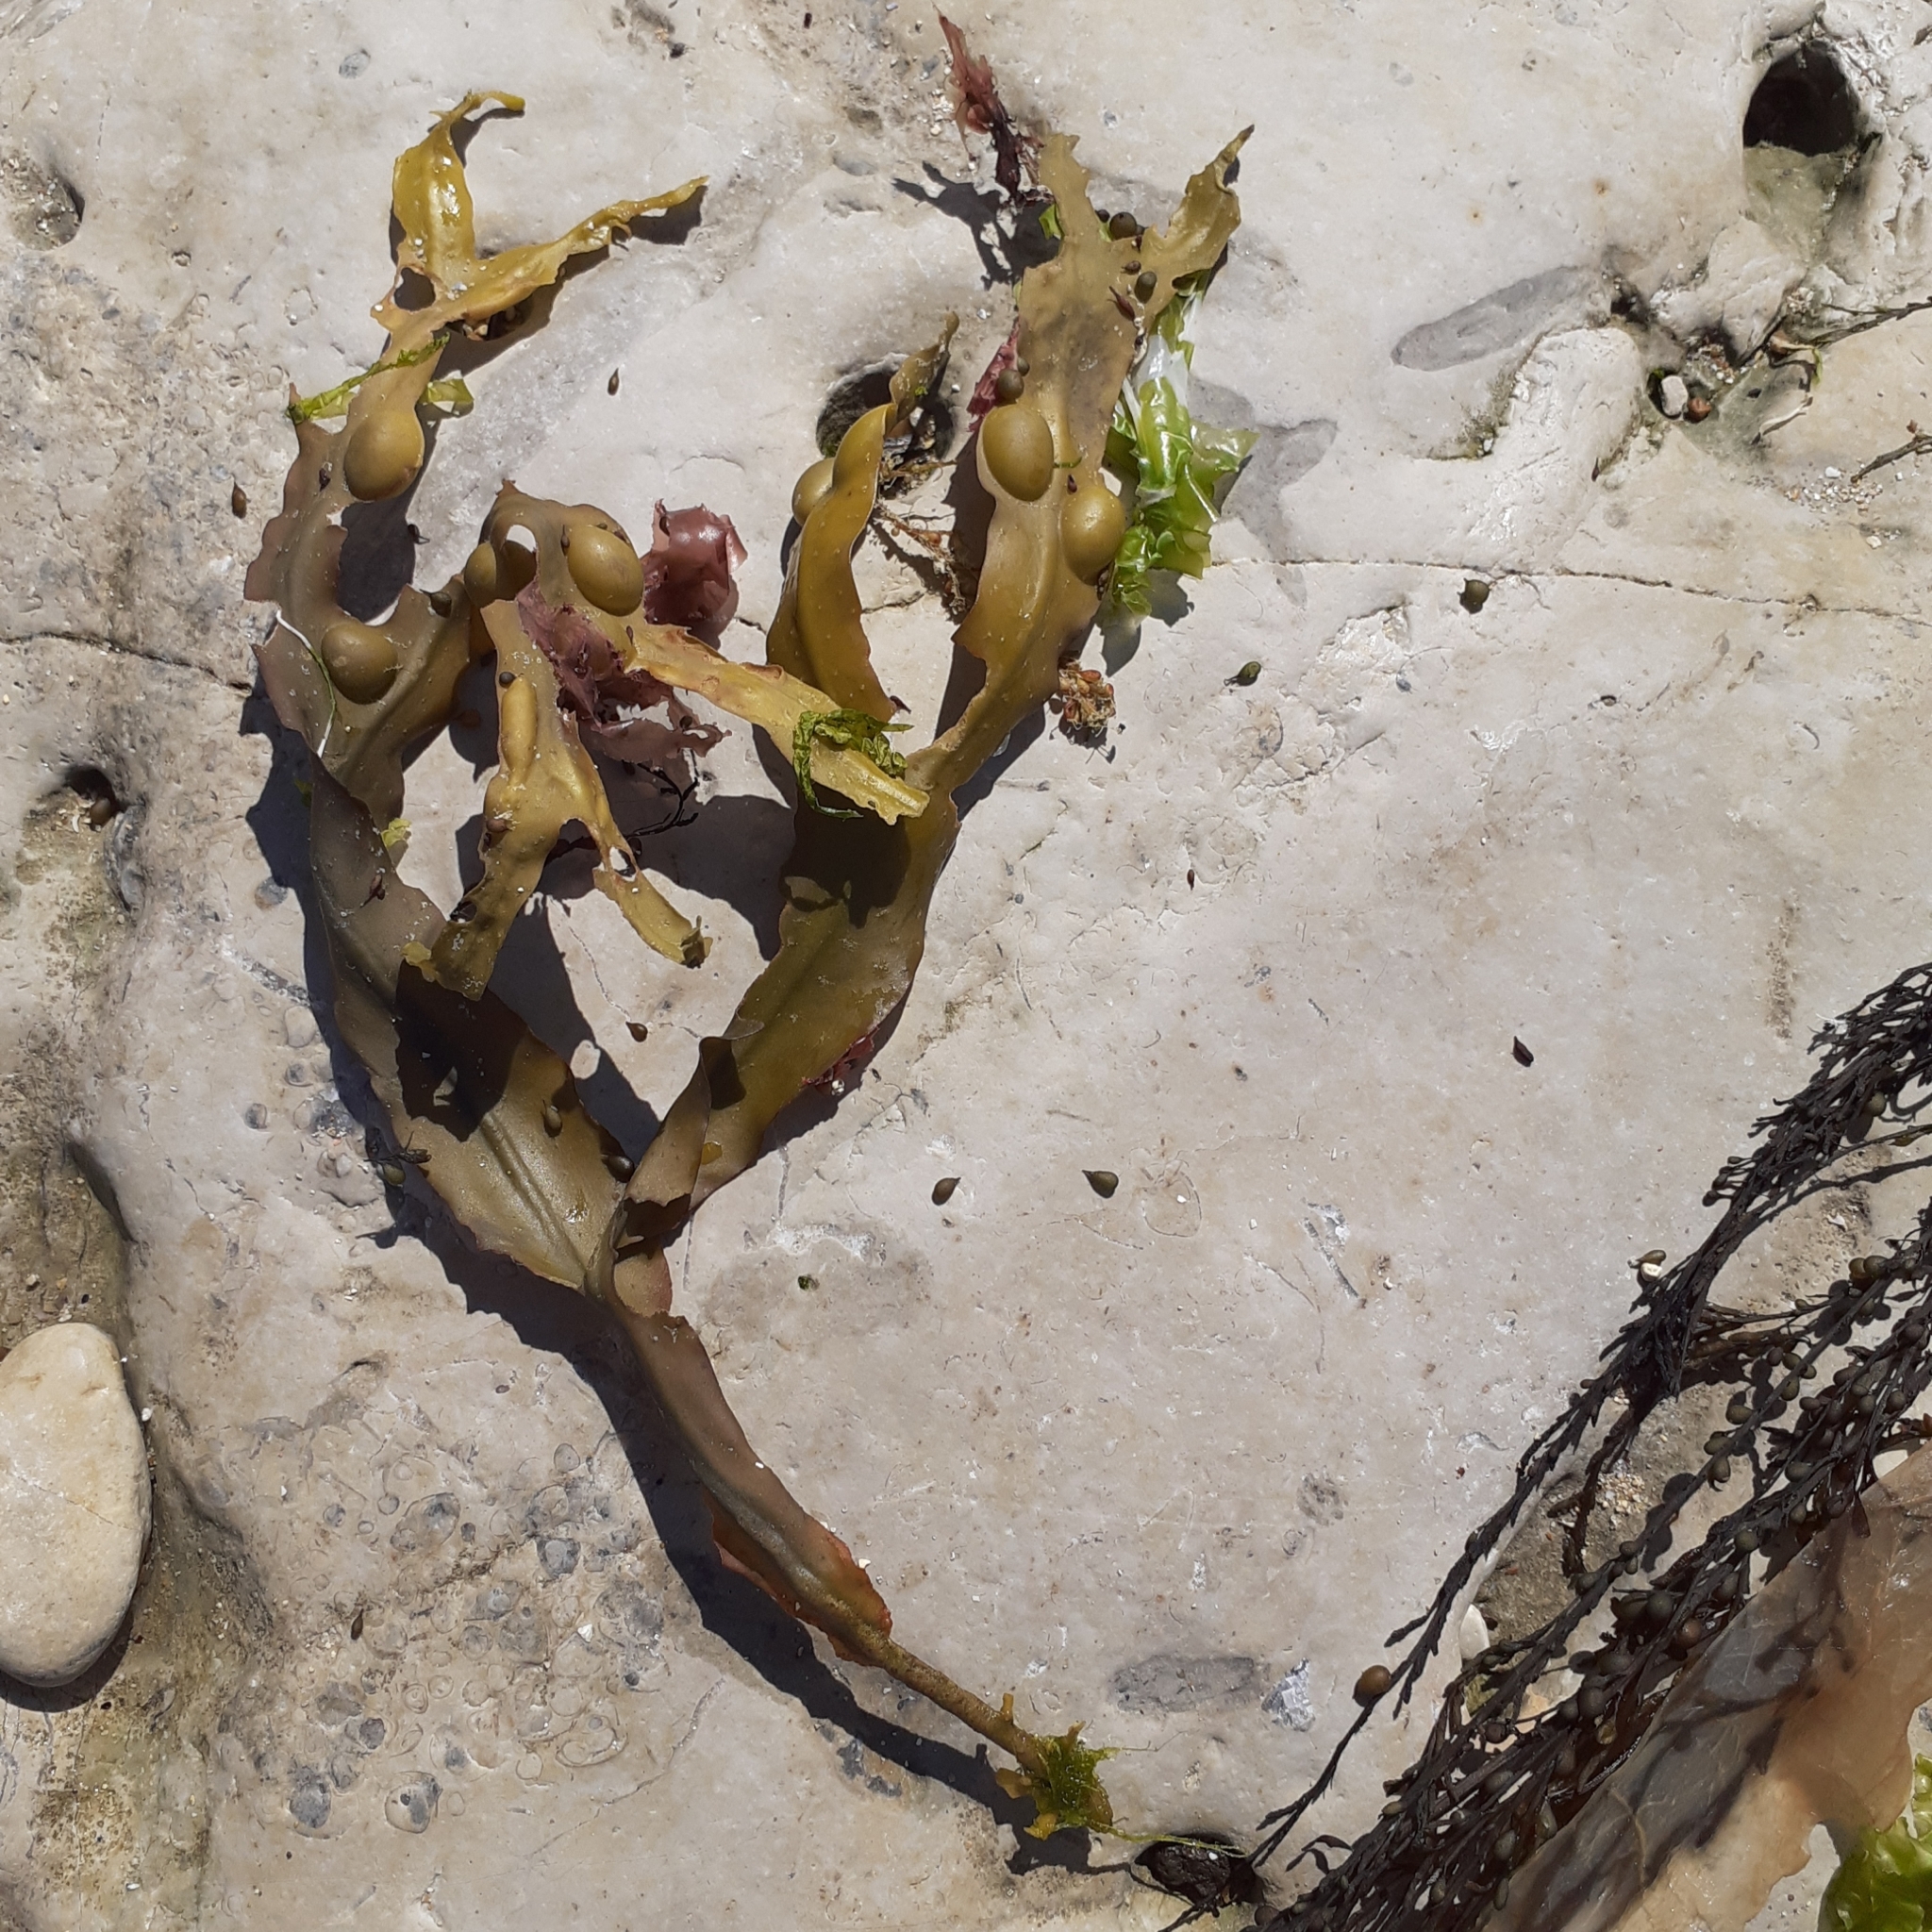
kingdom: Chromista
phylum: Ochrophyta
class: Phaeophyceae
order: Fucales
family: Fucaceae
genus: Fucus
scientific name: Fucus vesiculosus
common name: Bladder wrack
